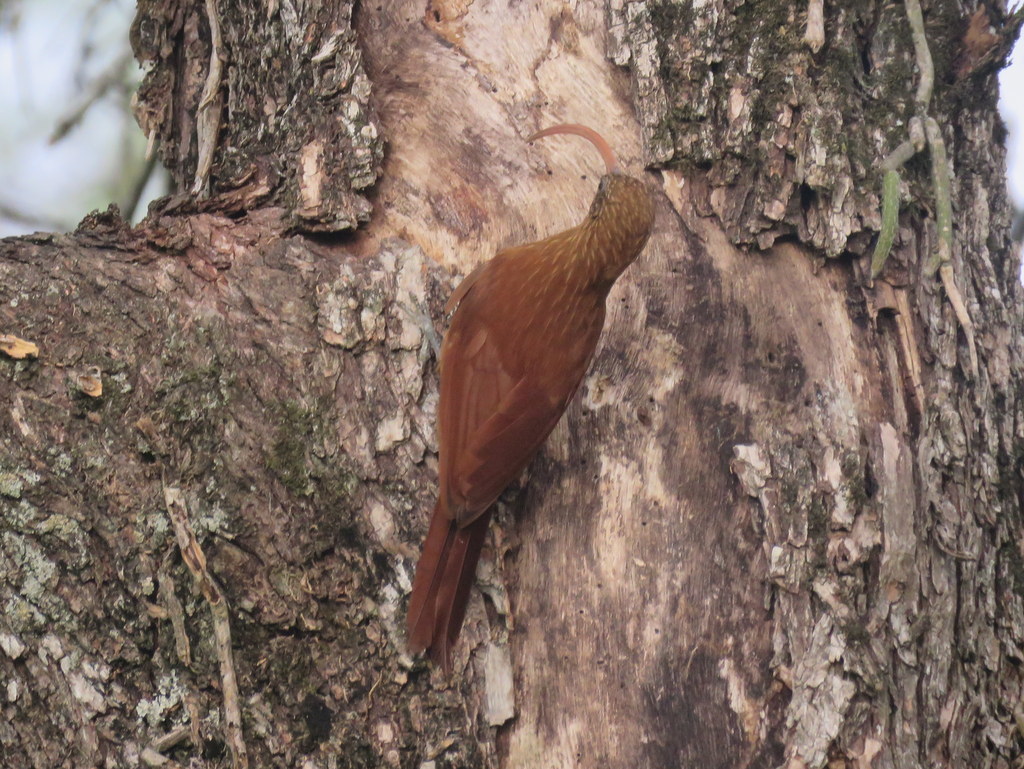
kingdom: Animalia
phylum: Chordata
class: Aves
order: Passeriformes
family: Furnariidae
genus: Campylorhamphus
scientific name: Campylorhamphus trochilirostris
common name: Red-billed scythebill
